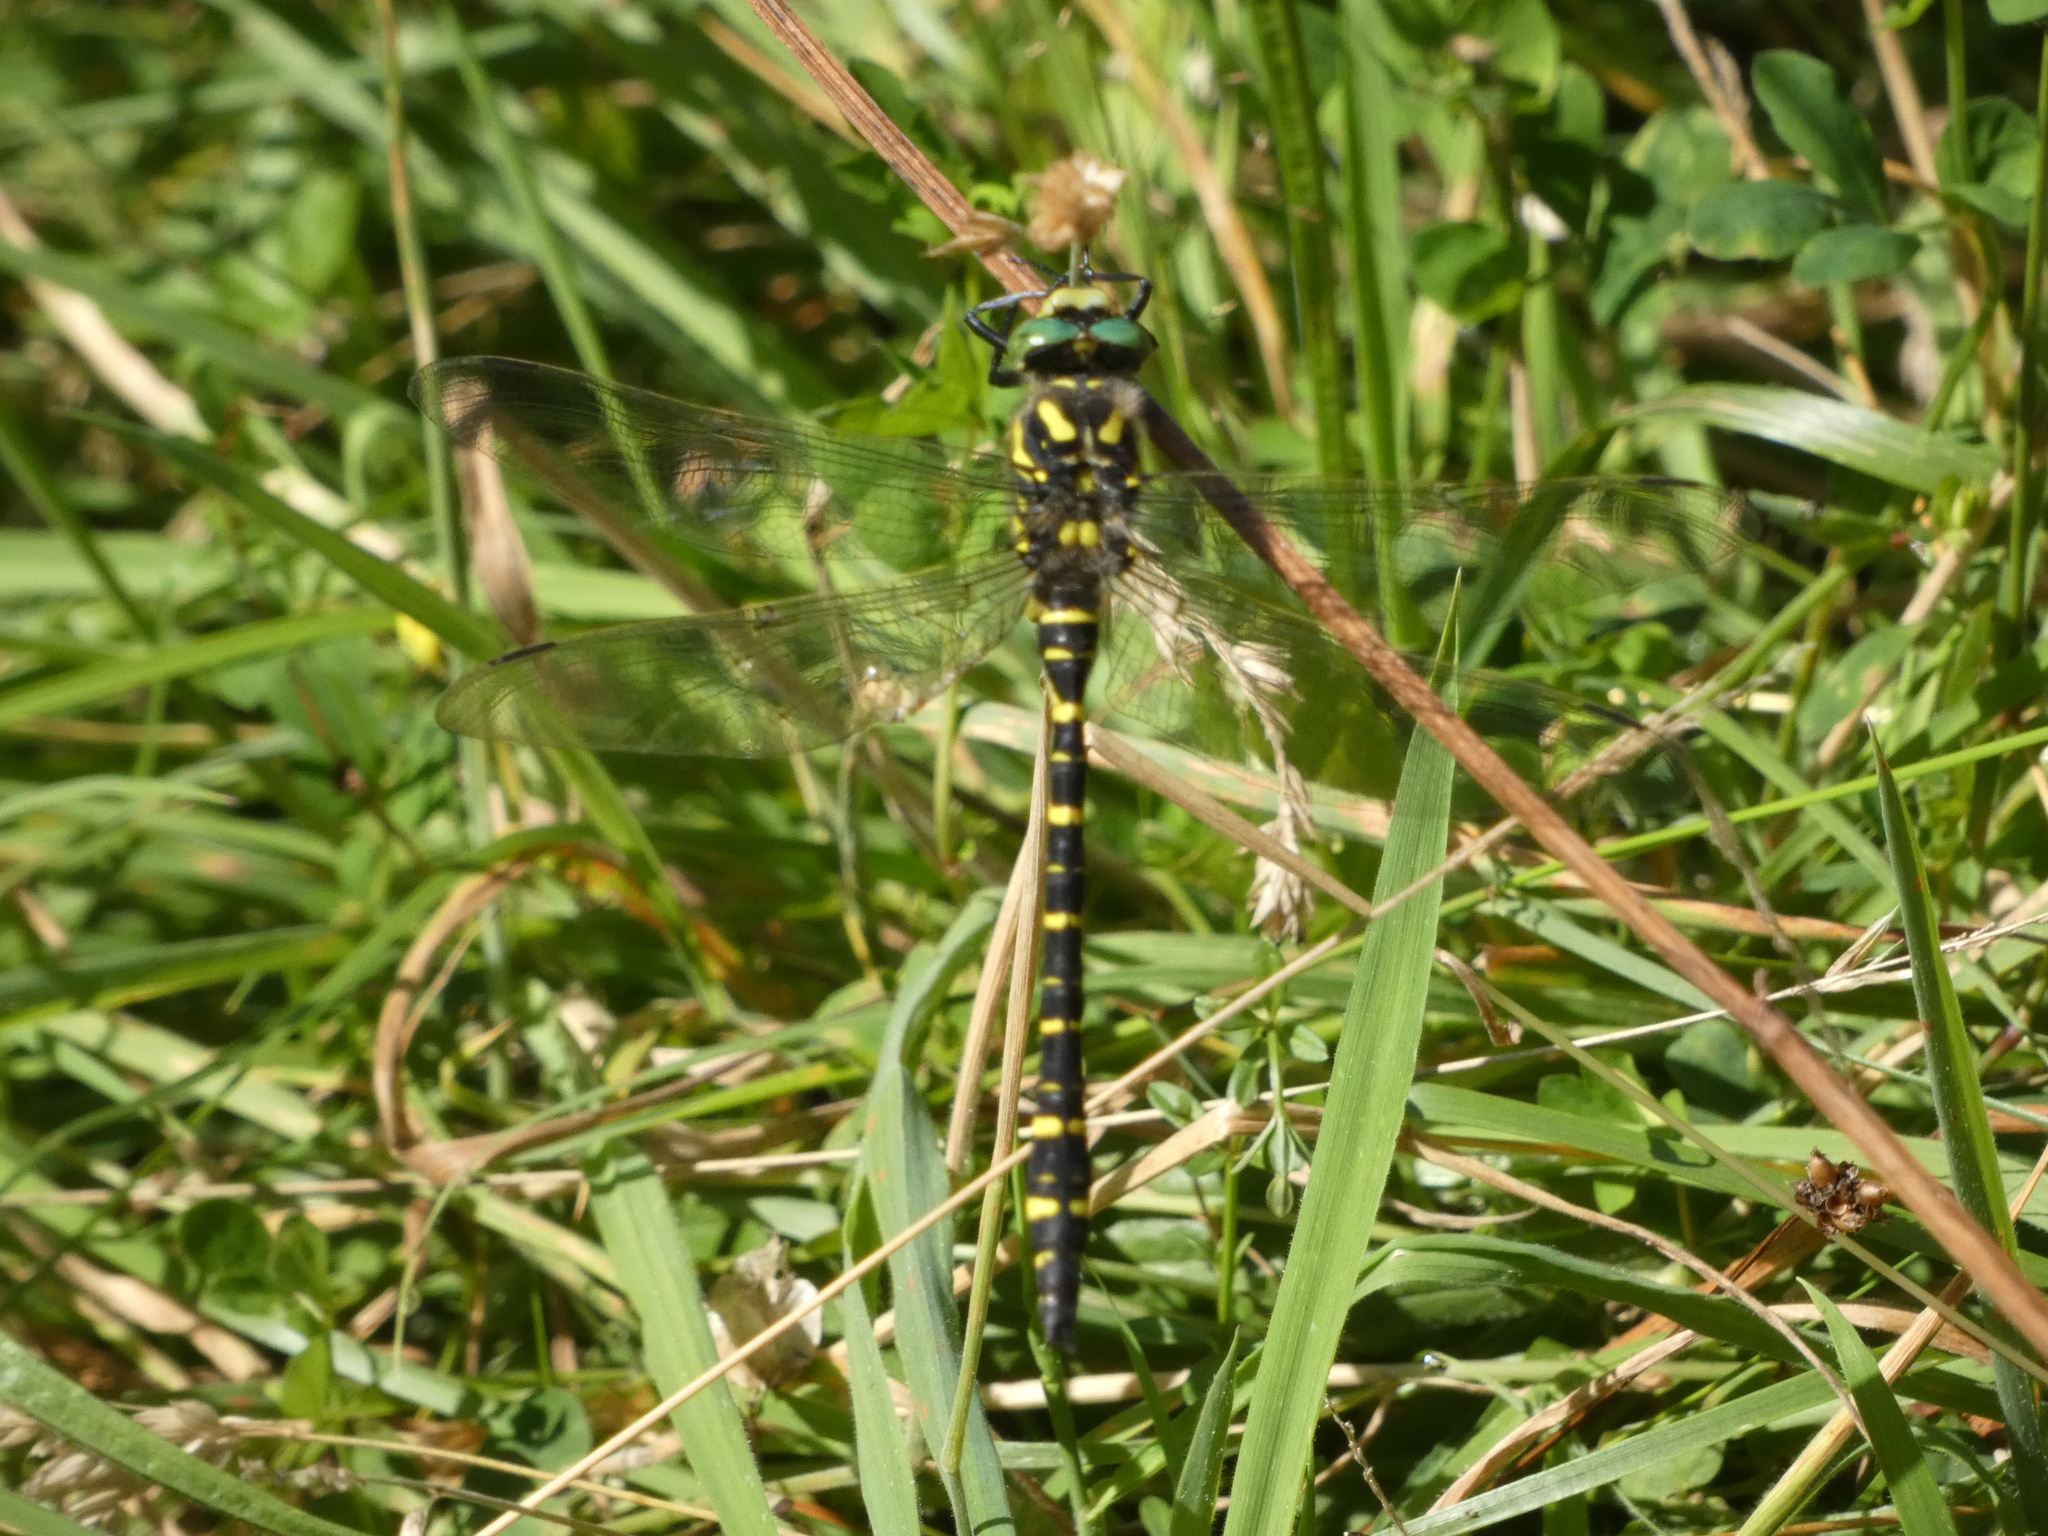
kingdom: Animalia
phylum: Arthropoda
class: Insecta
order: Odonata
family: Cordulegastridae
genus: Cordulegaster
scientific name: Cordulegaster boltonii
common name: Golden-ringed dragonfly
